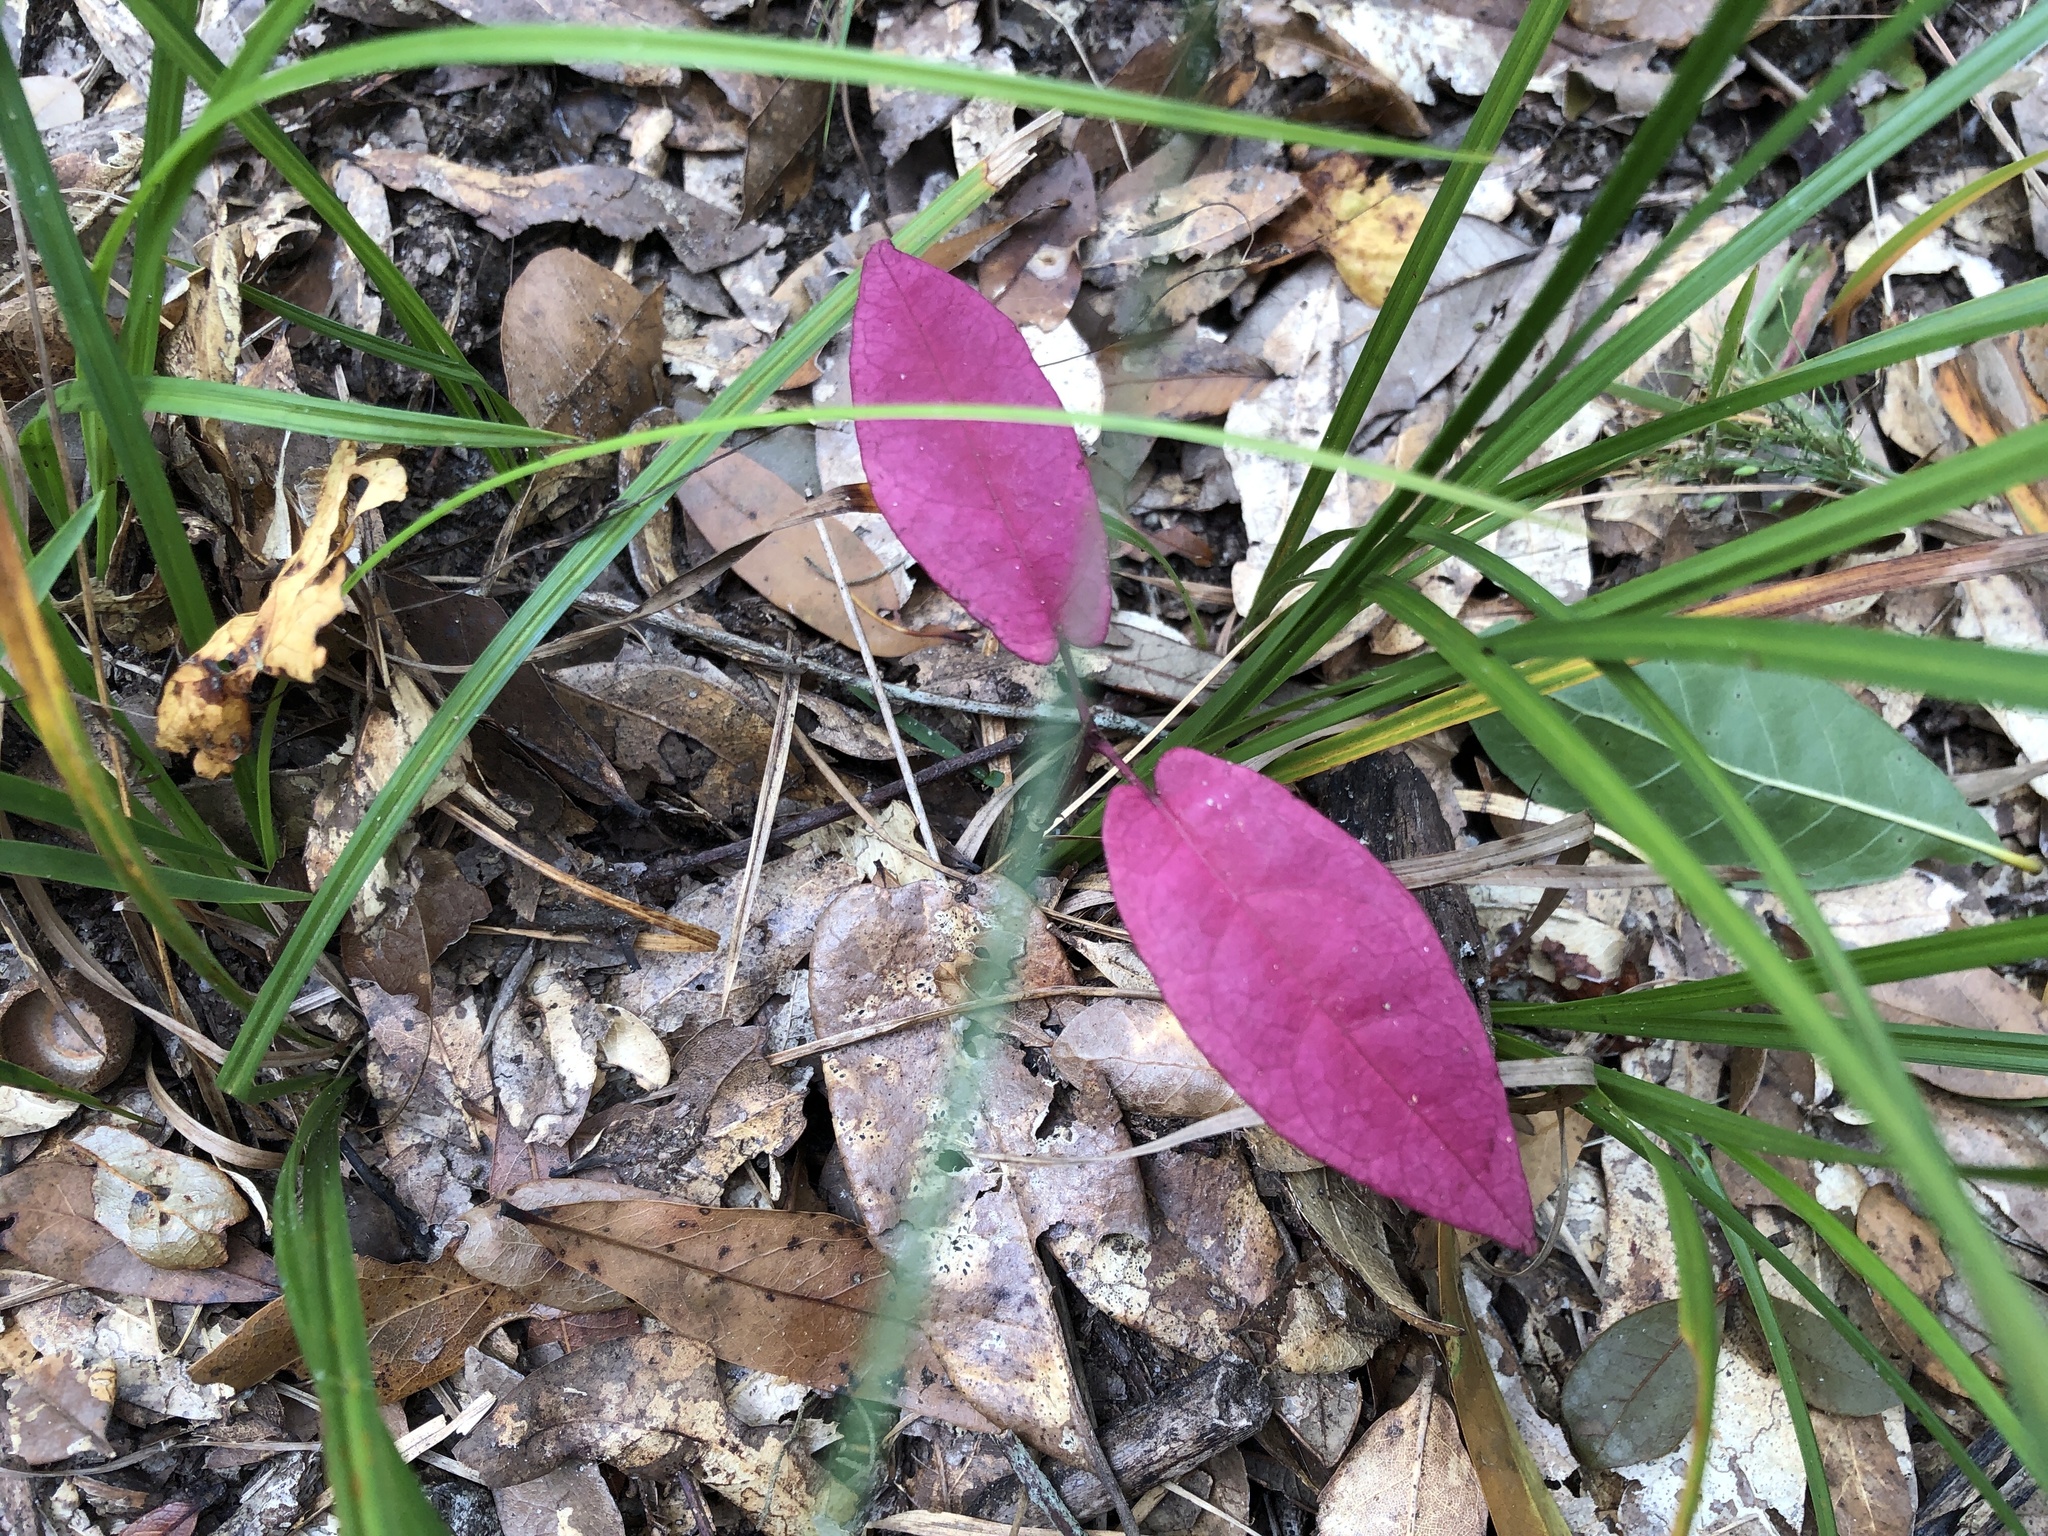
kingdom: Plantae
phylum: Tracheophyta
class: Magnoliopsida
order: Lamiales
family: Bignoniaceae
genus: Bignonia
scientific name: Bignonia capreolata
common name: Crossvine
